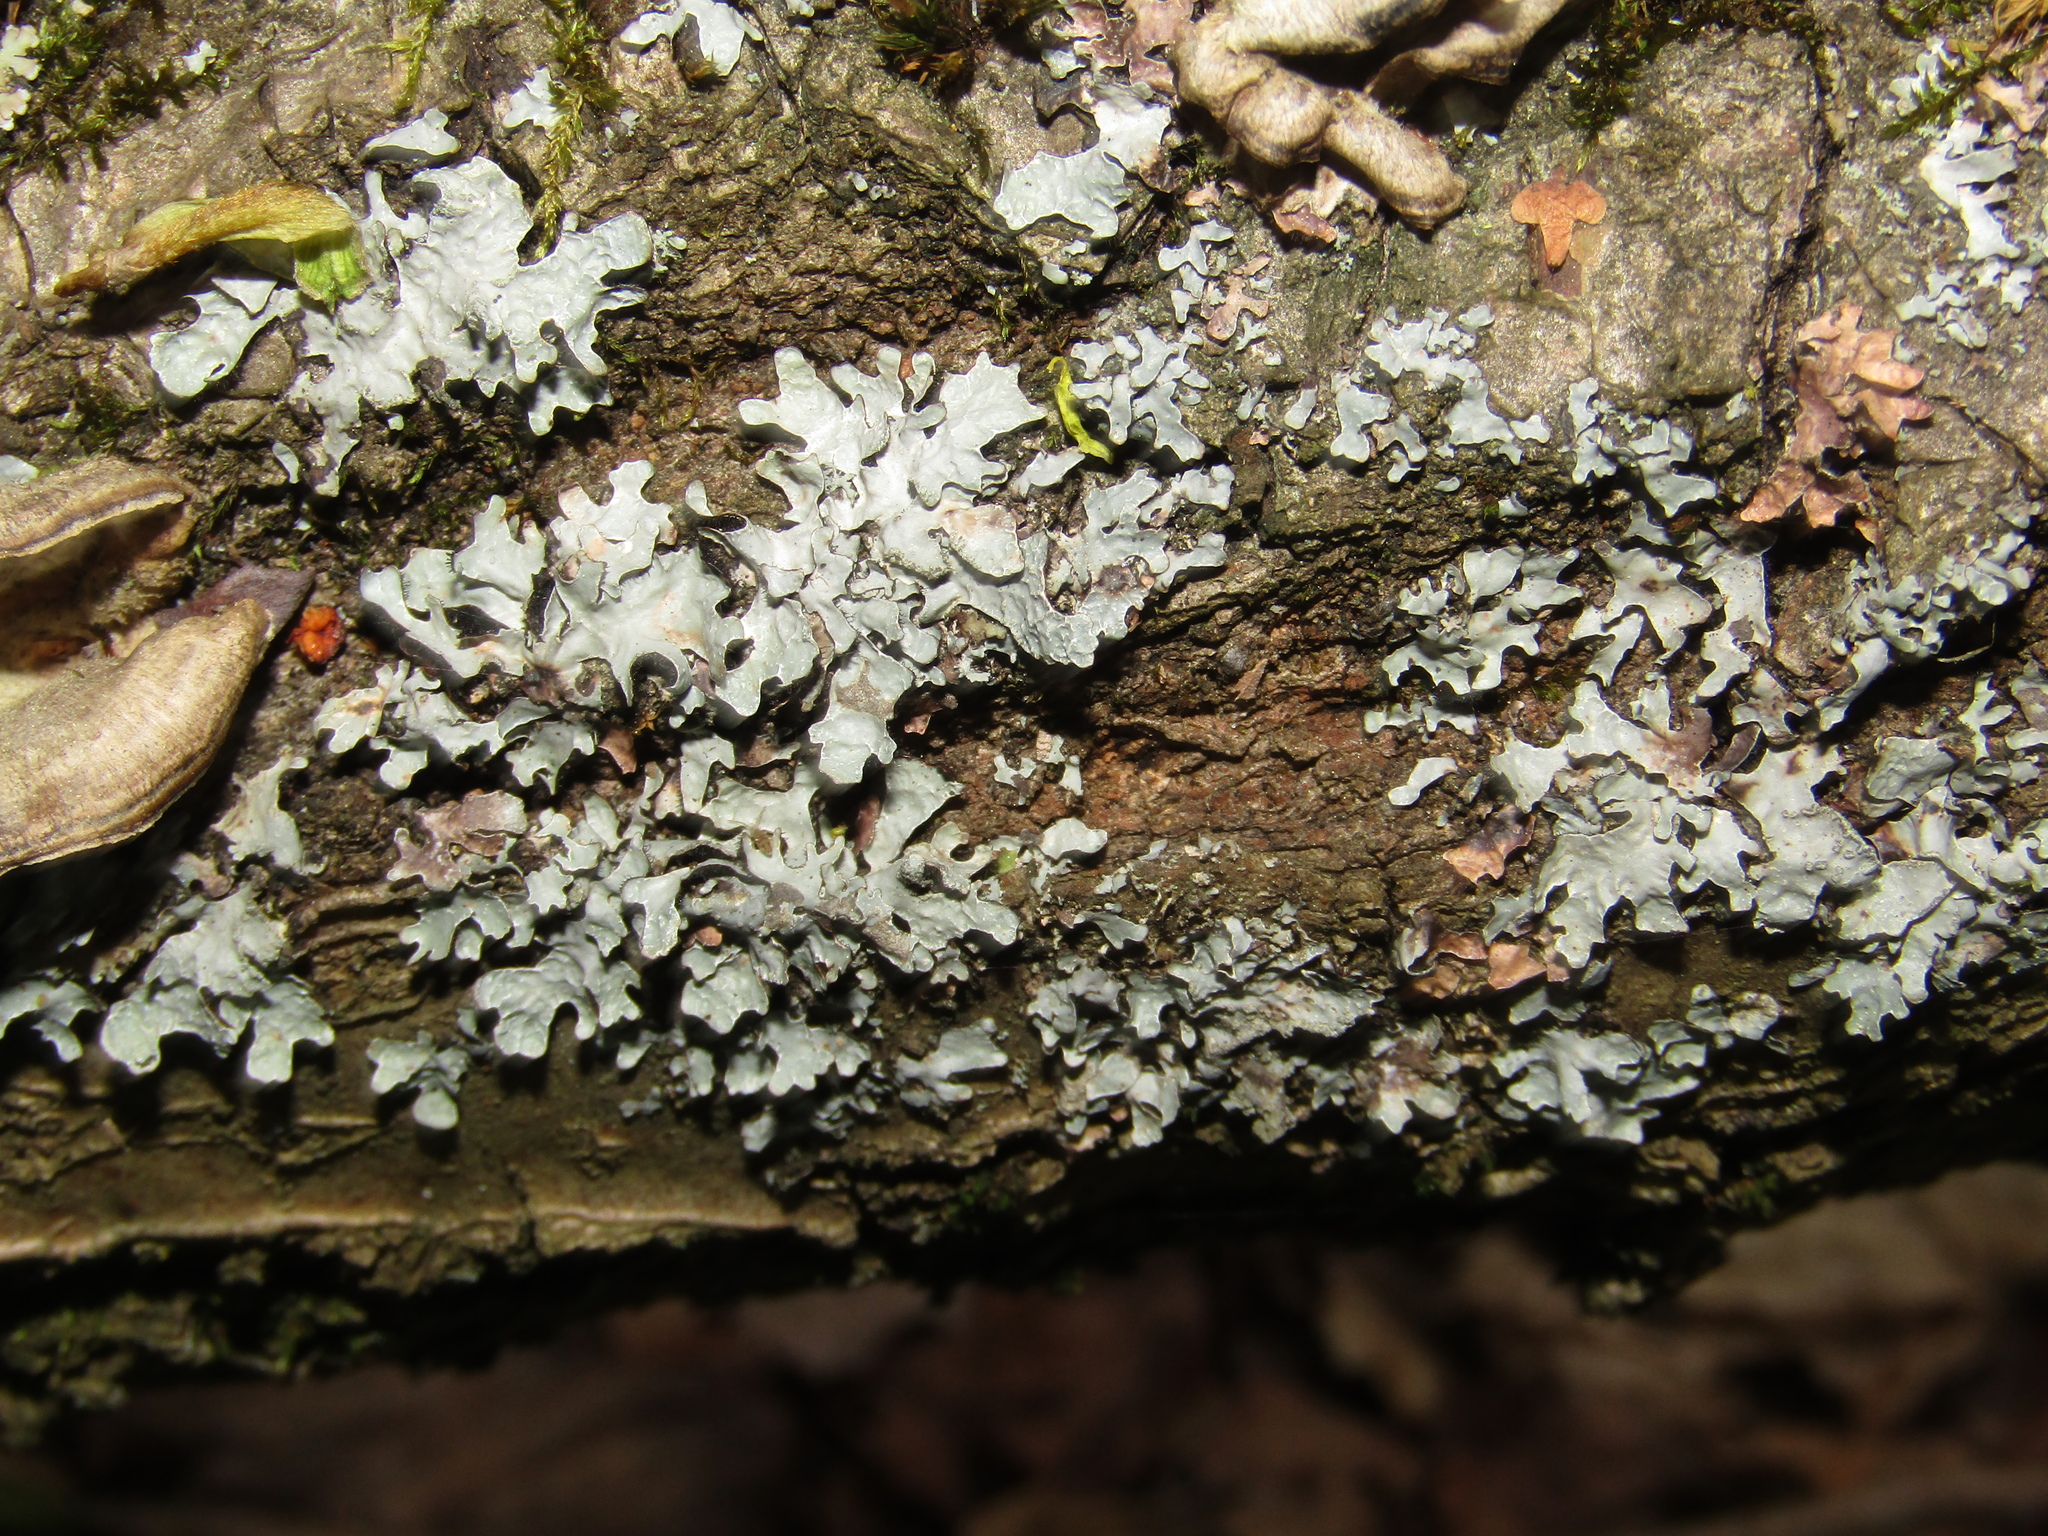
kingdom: Fungi
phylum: Ascomycota
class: Lecanoromycetes
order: Lecanorales
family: Parmeliaceae
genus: Parmelia
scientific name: Parmelia sulcata
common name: Netted shield lichen
